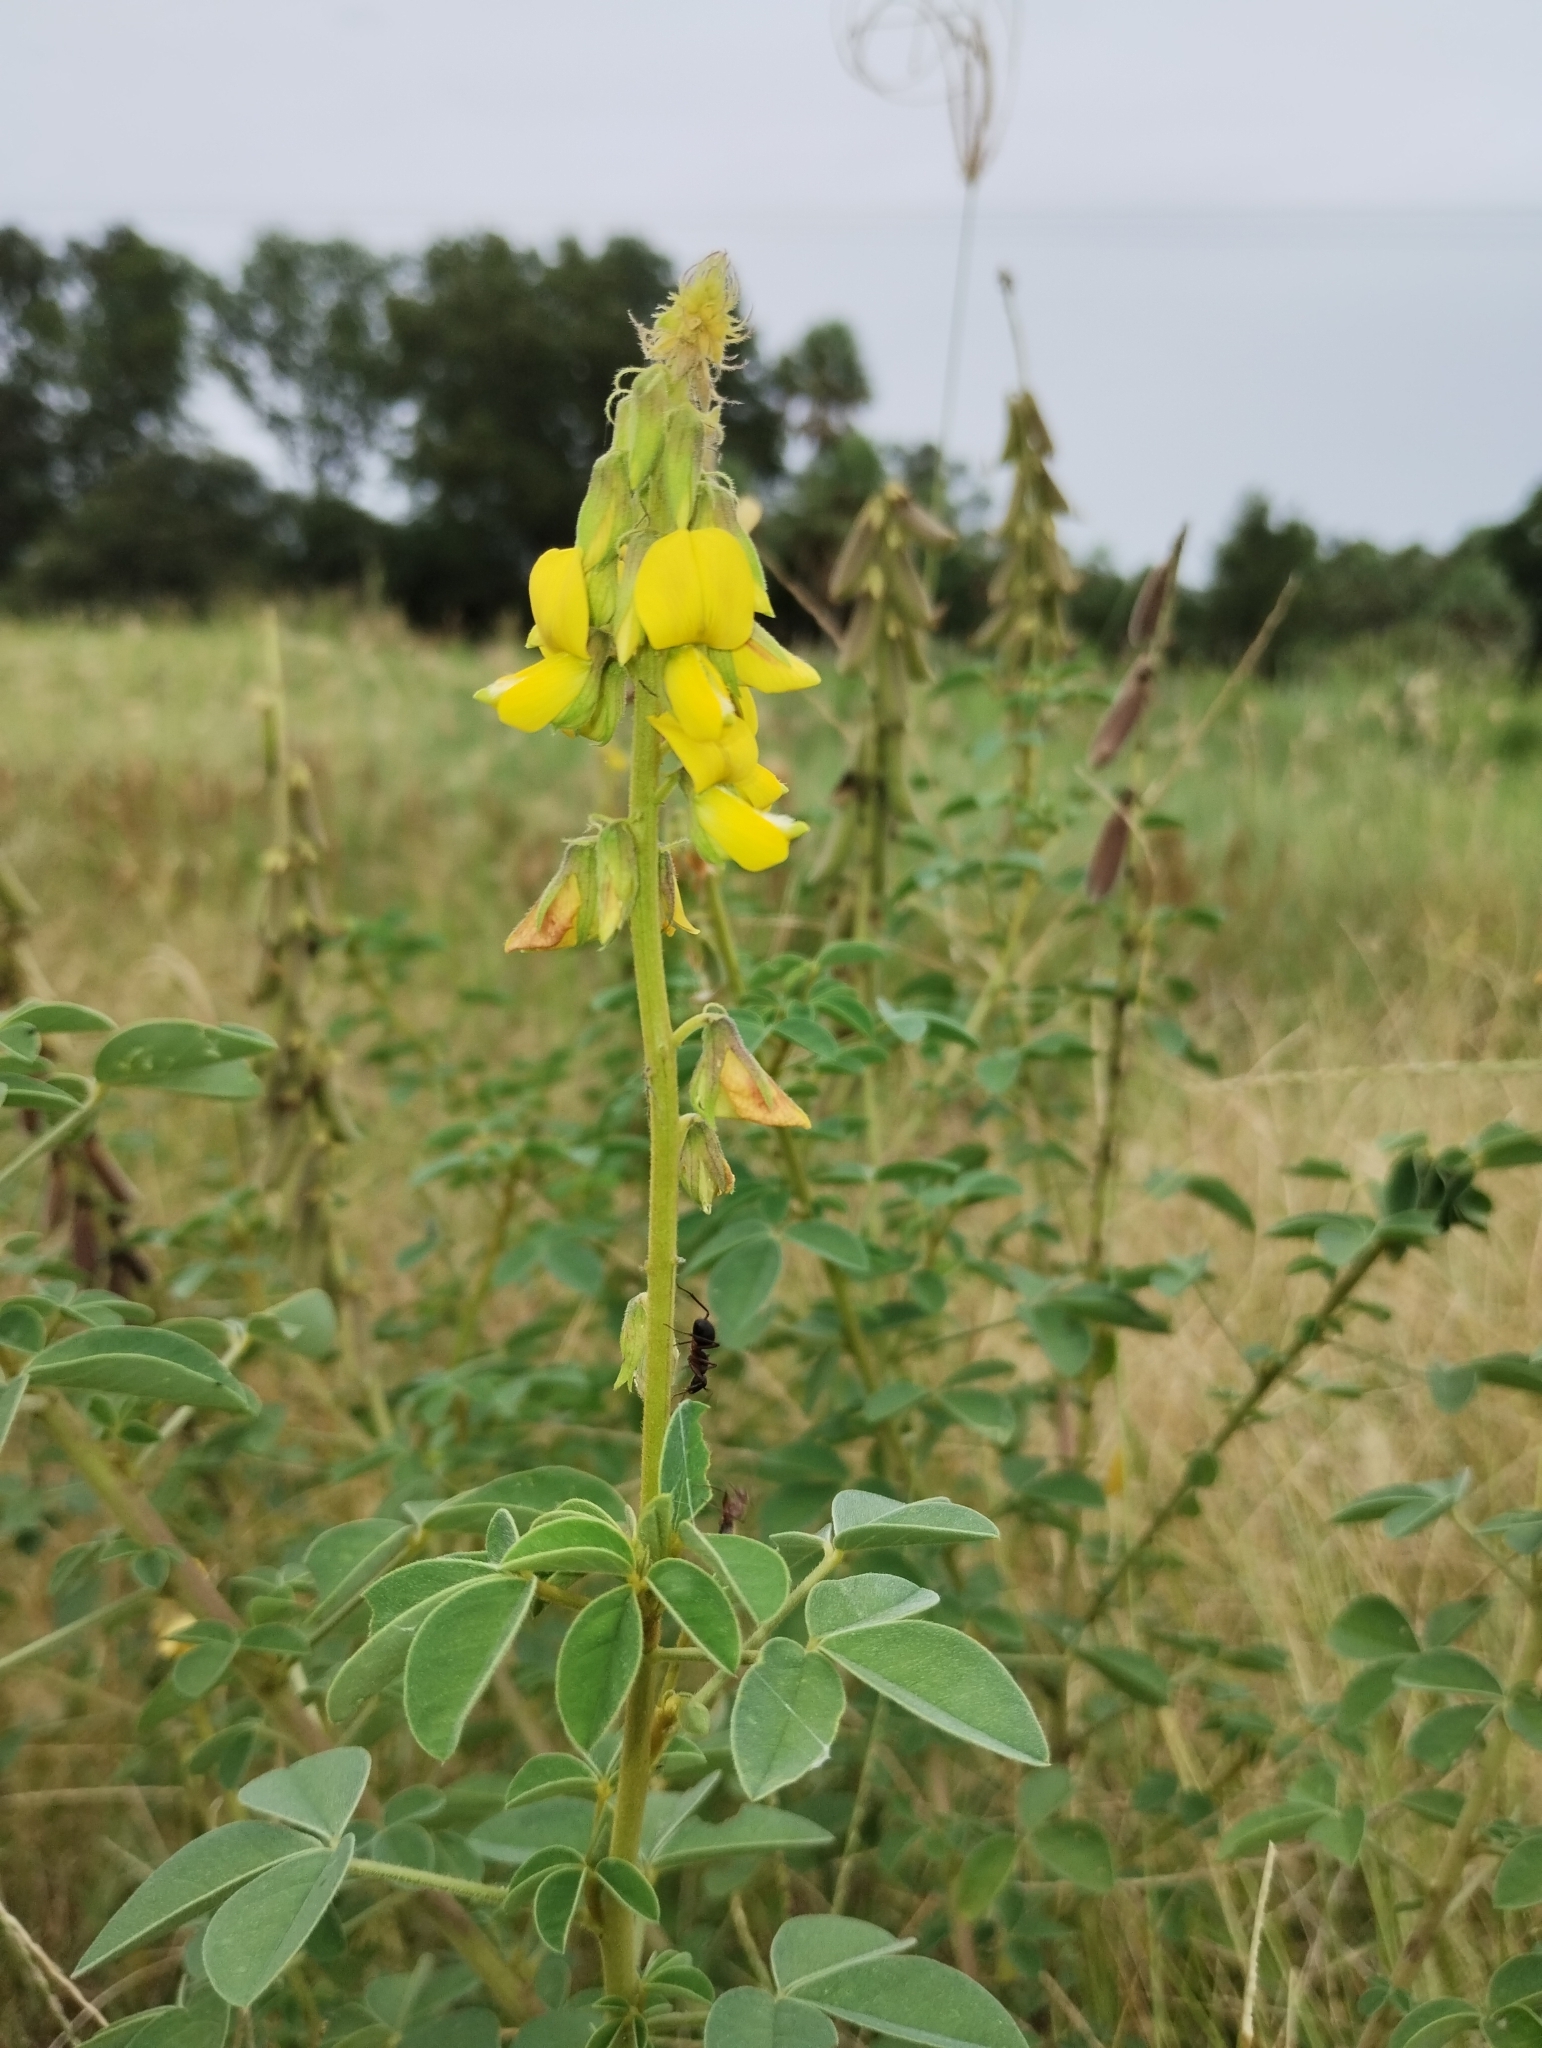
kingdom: Plantae
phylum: Tracheophyta
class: Magnoliopsida
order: Fabales
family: Fabaceae
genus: Crotalaria
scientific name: Crotalaria incana
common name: Shakeshake
